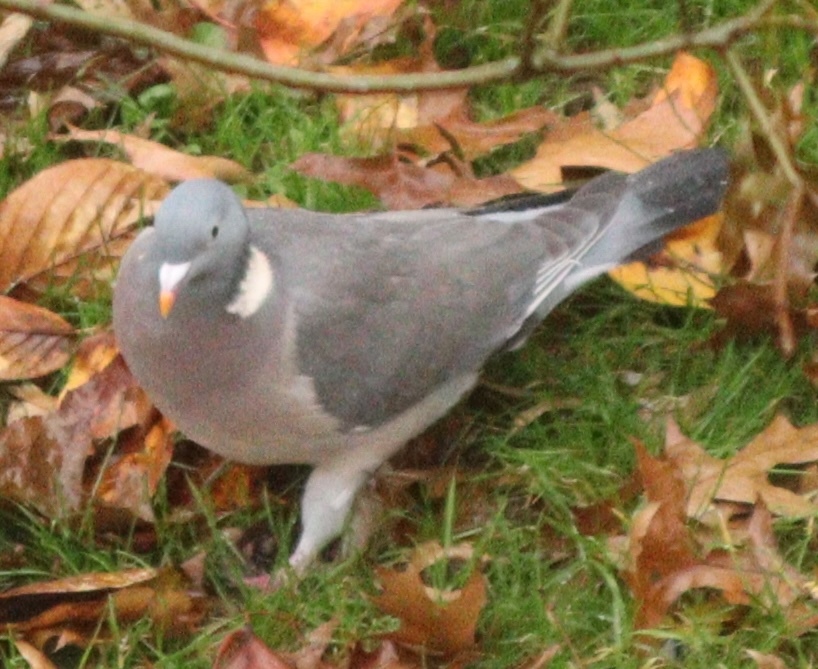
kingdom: Animalia
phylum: Chordata
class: Aves
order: Columbiformes
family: Columbidae
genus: Columba
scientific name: Columba palumbus
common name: Common wood pigeon
